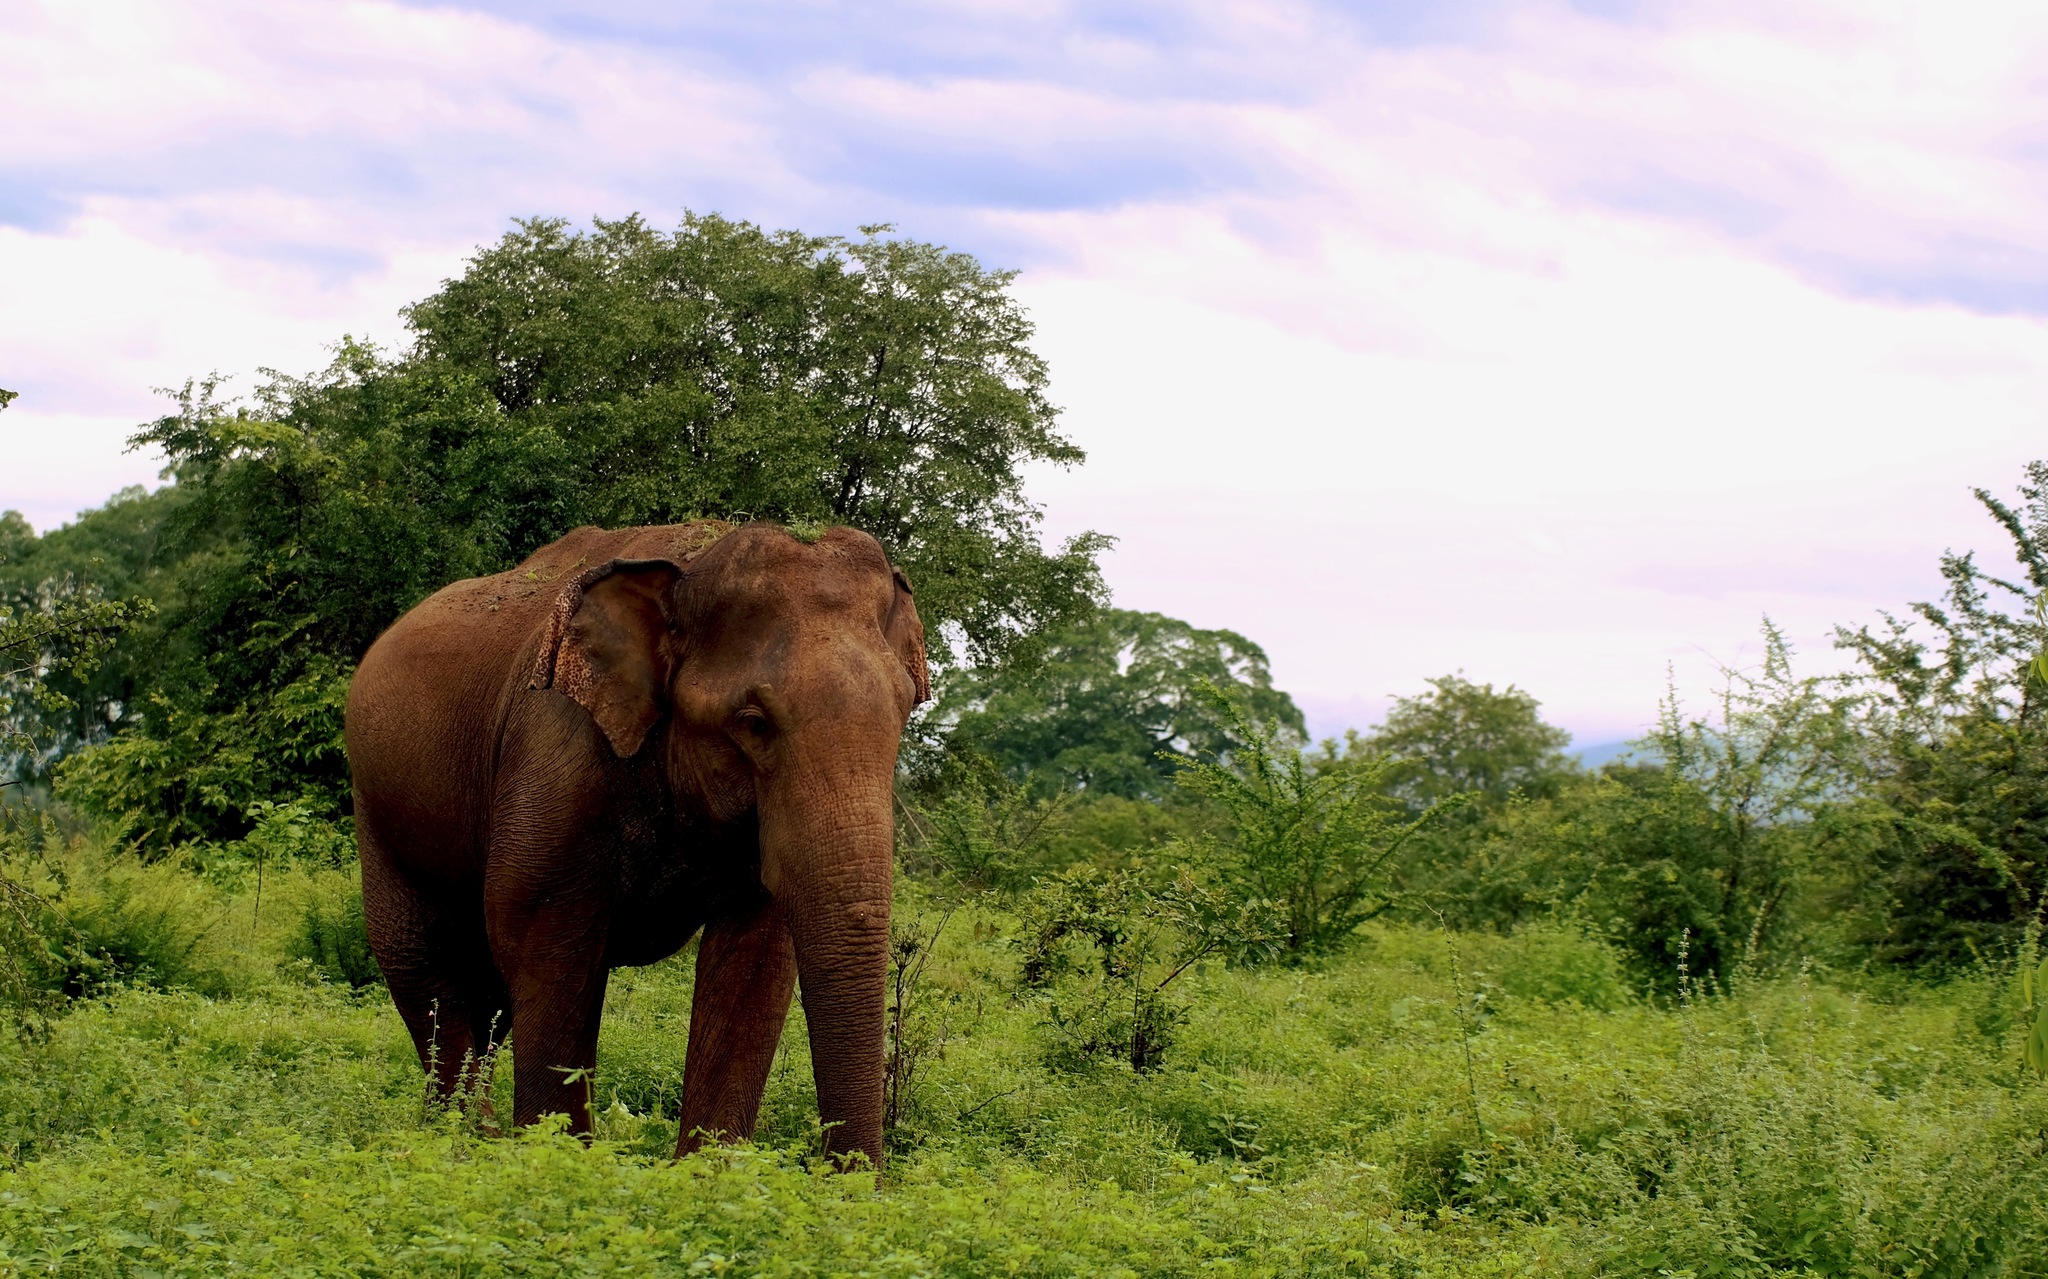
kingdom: Animalia
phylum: Chordata
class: Mammalia
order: Proboscidea
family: Elephantidae
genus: Elephas
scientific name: Elephas maximus
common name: Asian elephant
